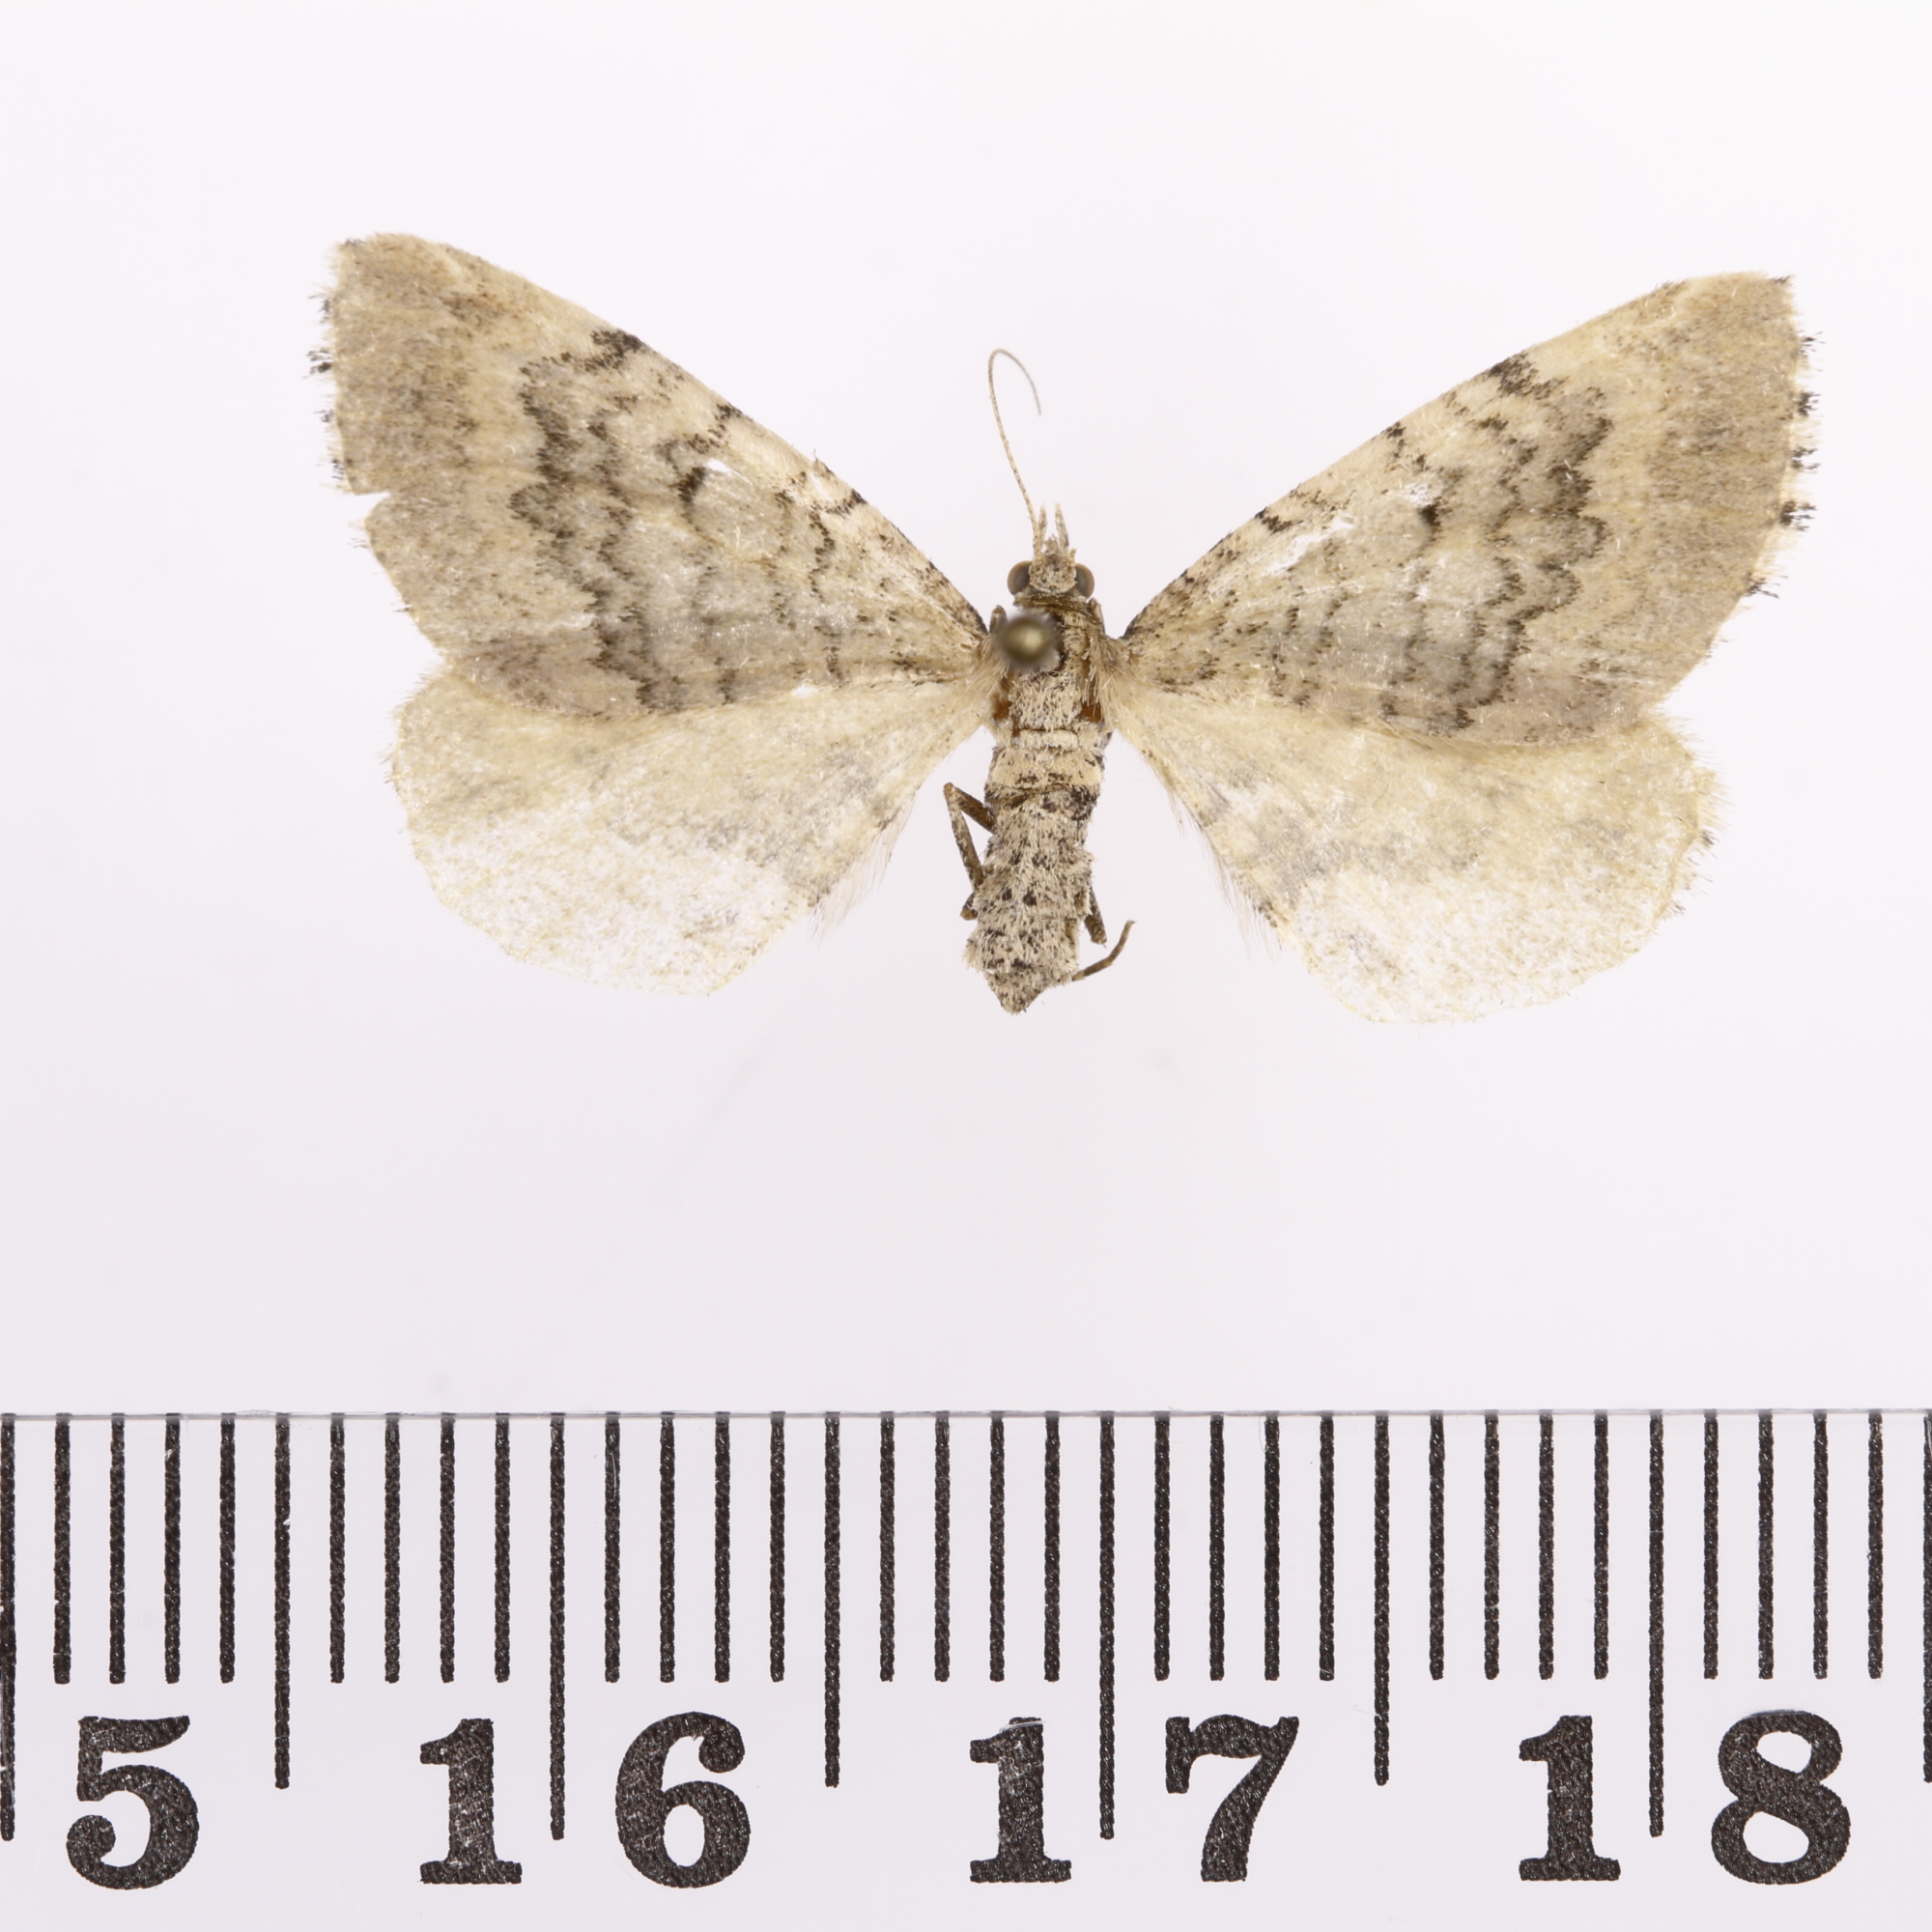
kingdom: Animalia
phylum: Arthropoda
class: Insecta
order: Lepidoptera
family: Geometridae
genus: Asaphodes
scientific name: Asaphodes aegrota
